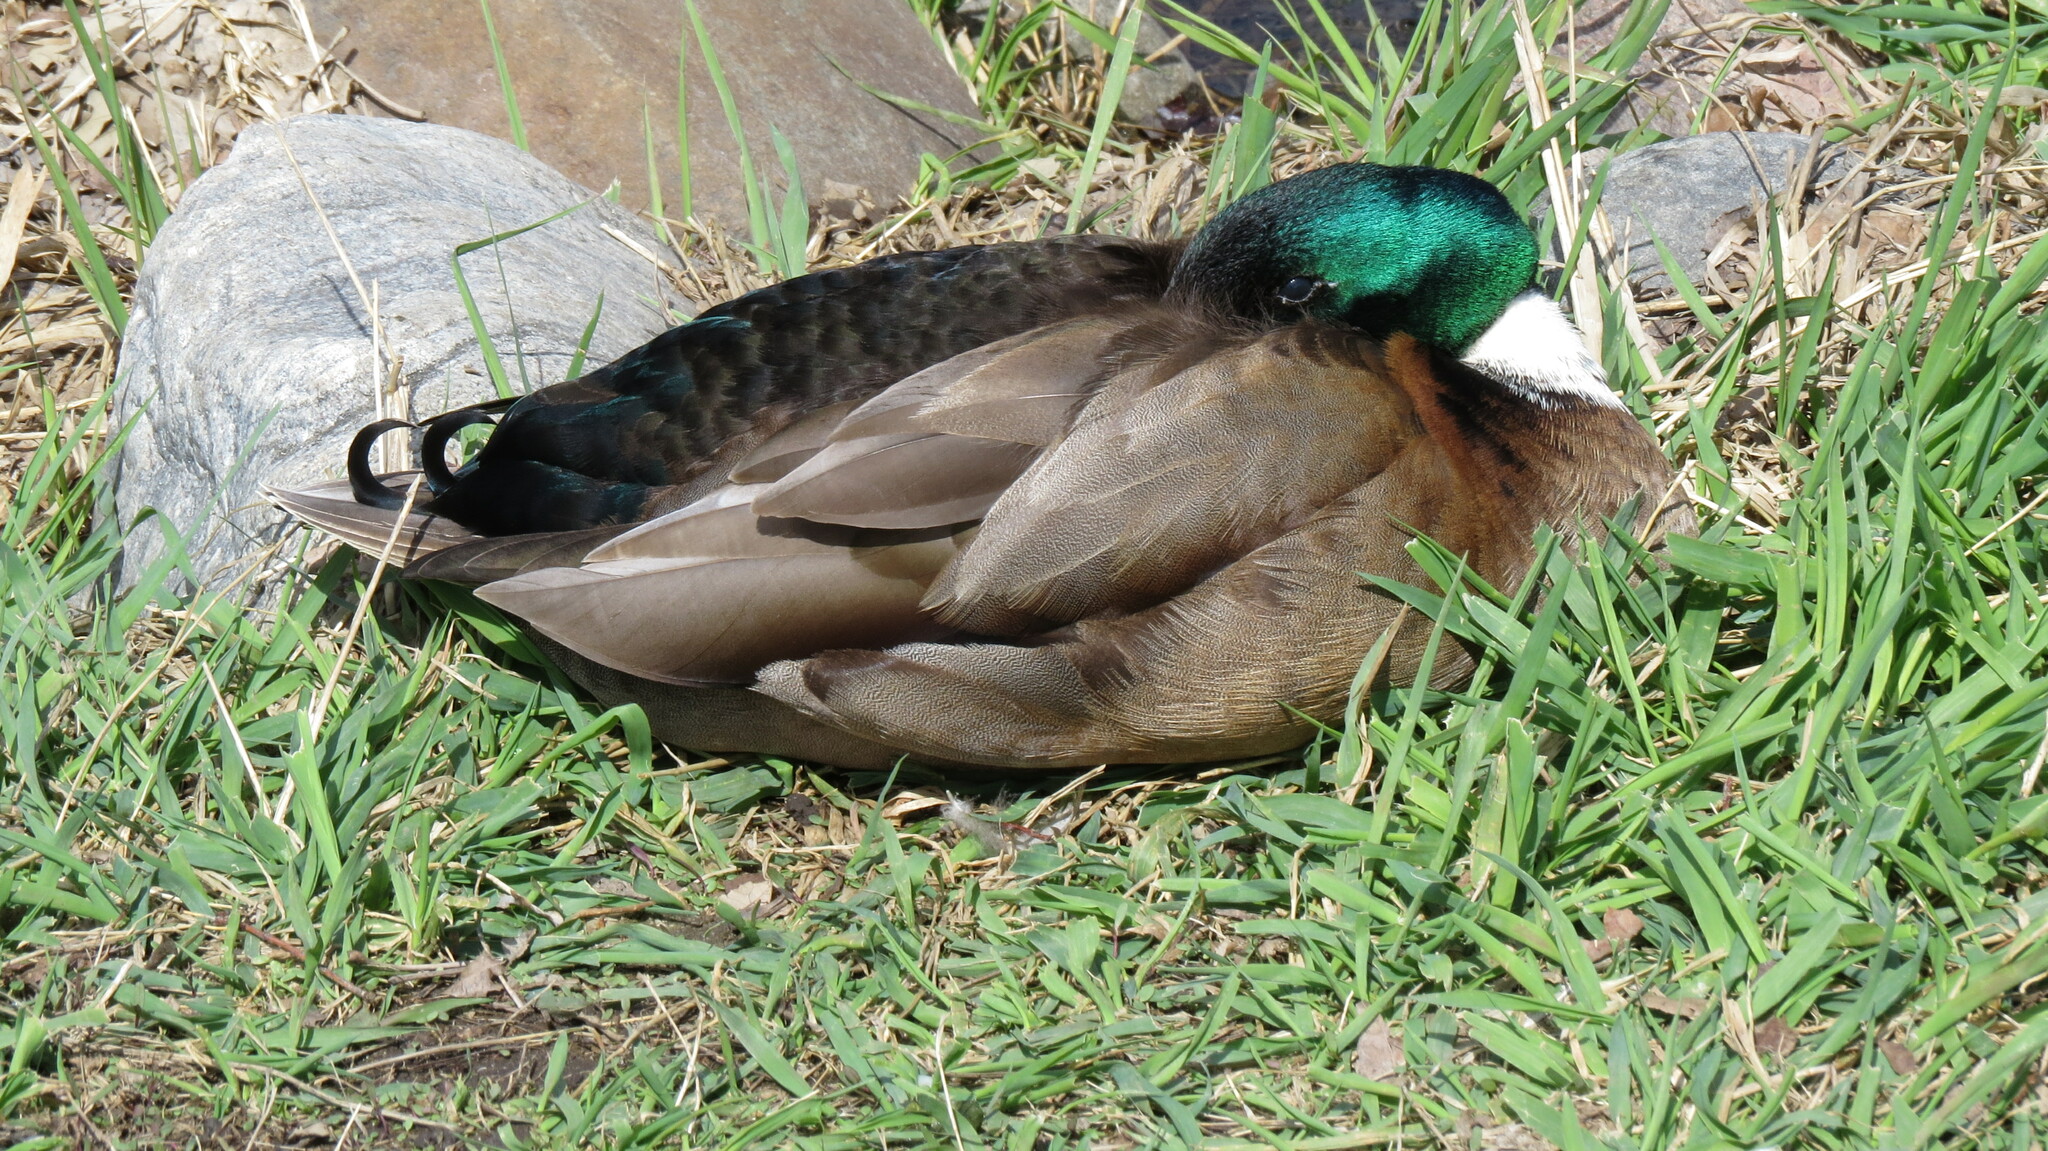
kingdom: Animalia
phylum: Chordata
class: Aves
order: Anseriformes
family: Anatidae
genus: Anas
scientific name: Anas platyrhynchos
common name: Mallard
